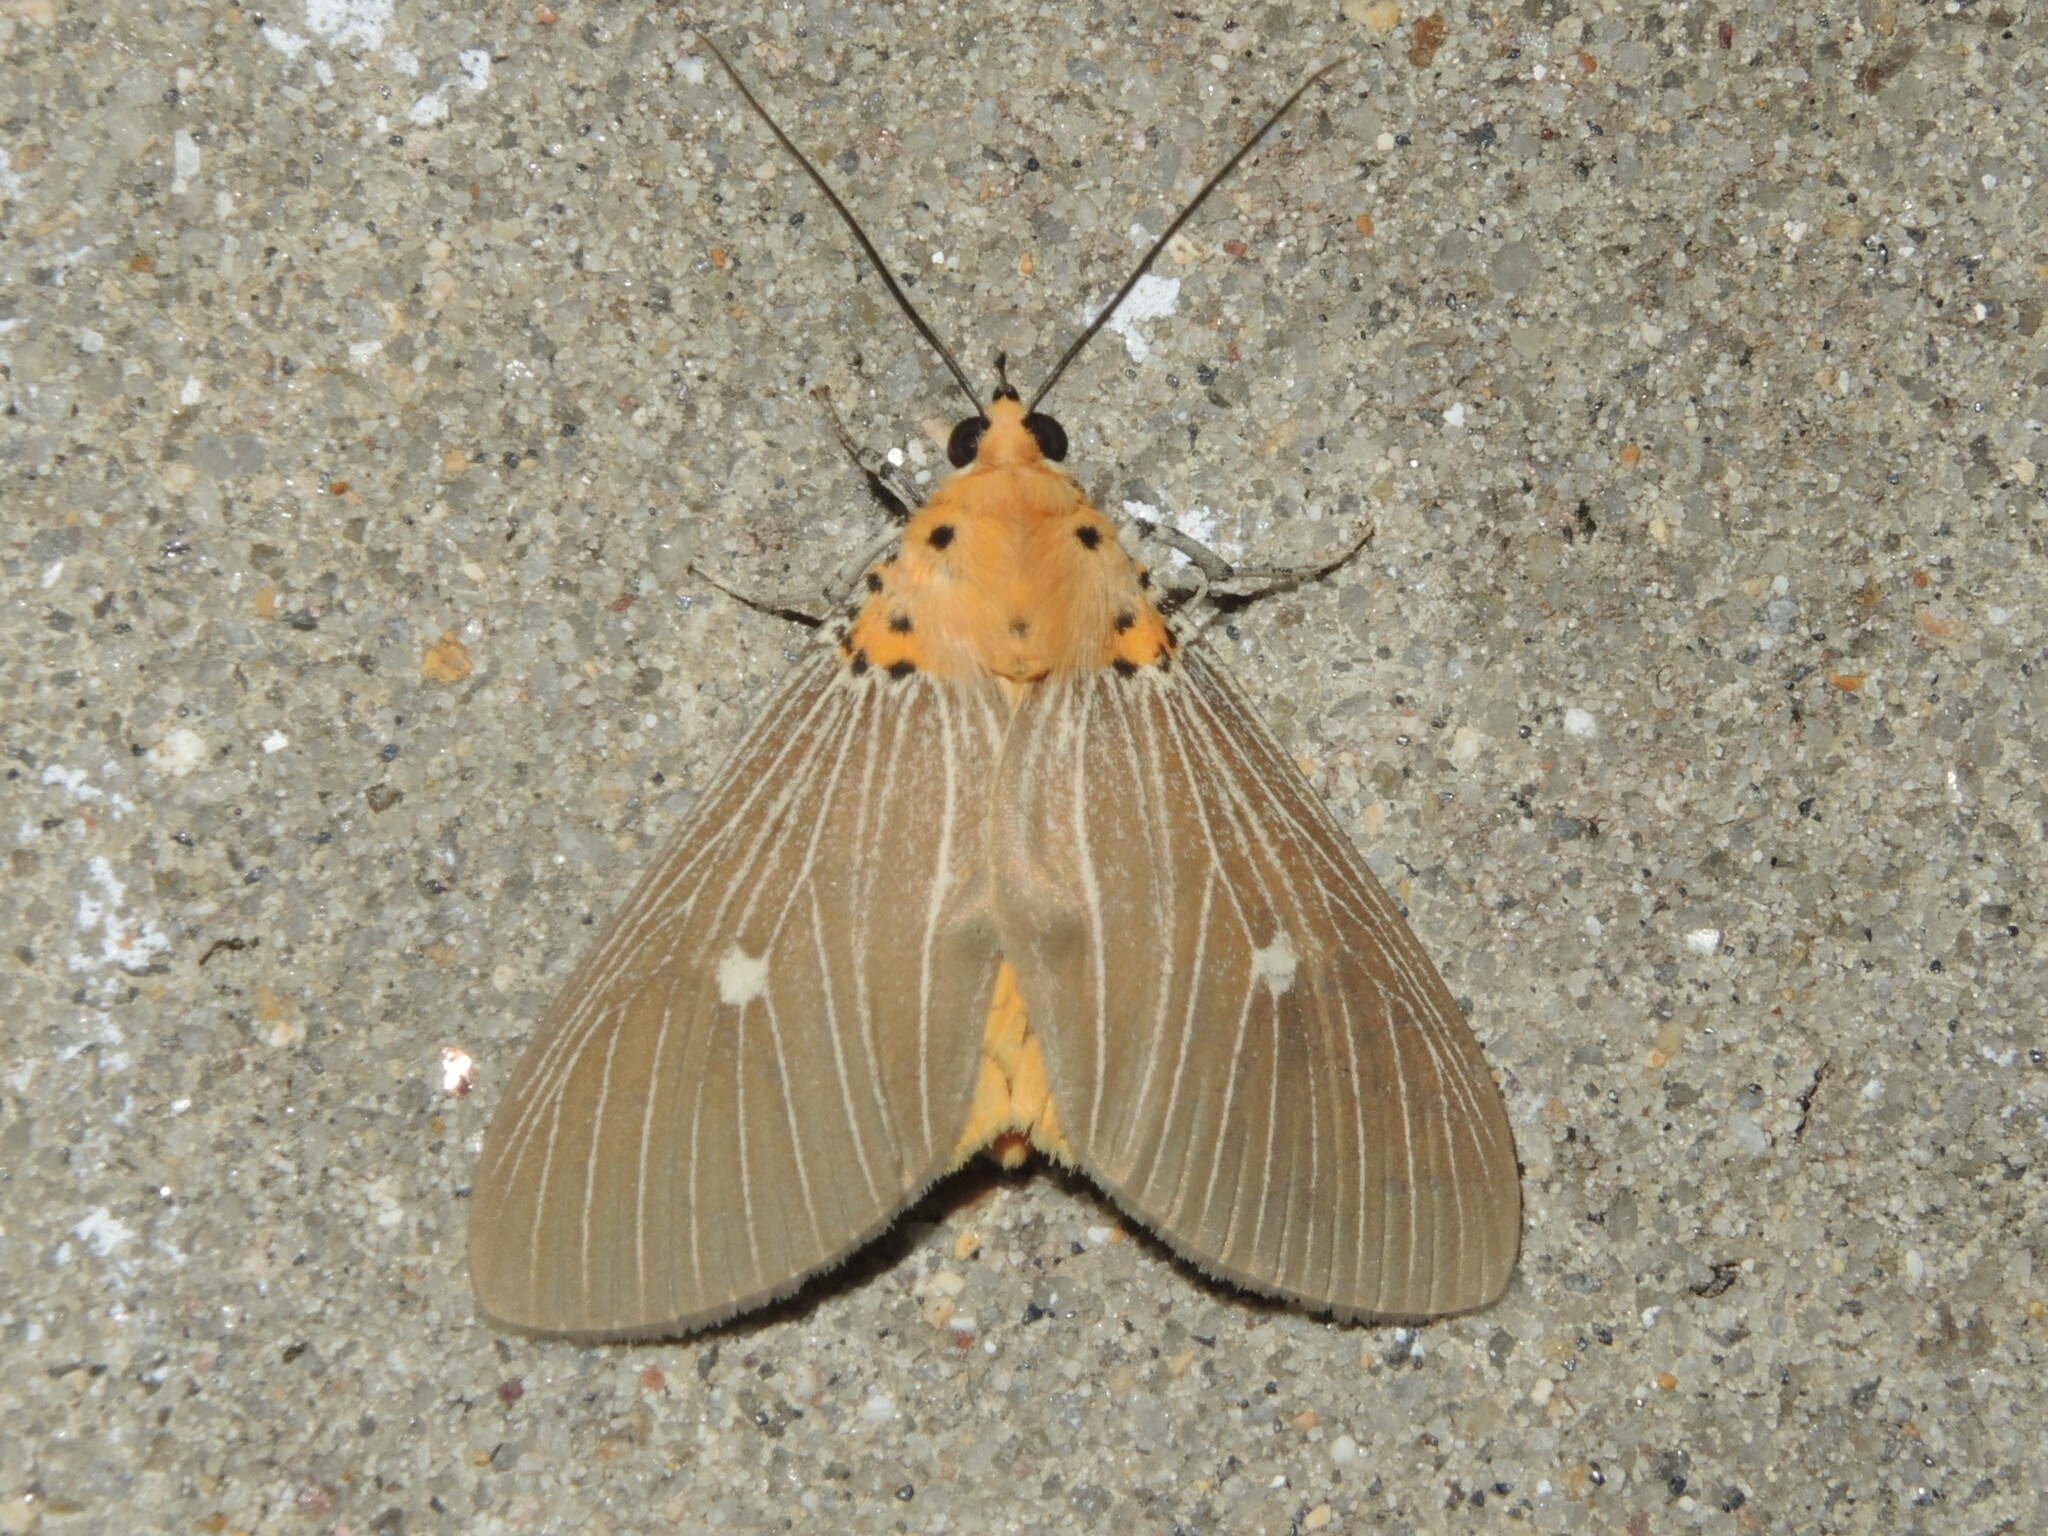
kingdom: Animalia
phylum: Arthropoda
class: Insecta
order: Lepidoptera
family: Erebidae
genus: Asota
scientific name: Asota caricae
